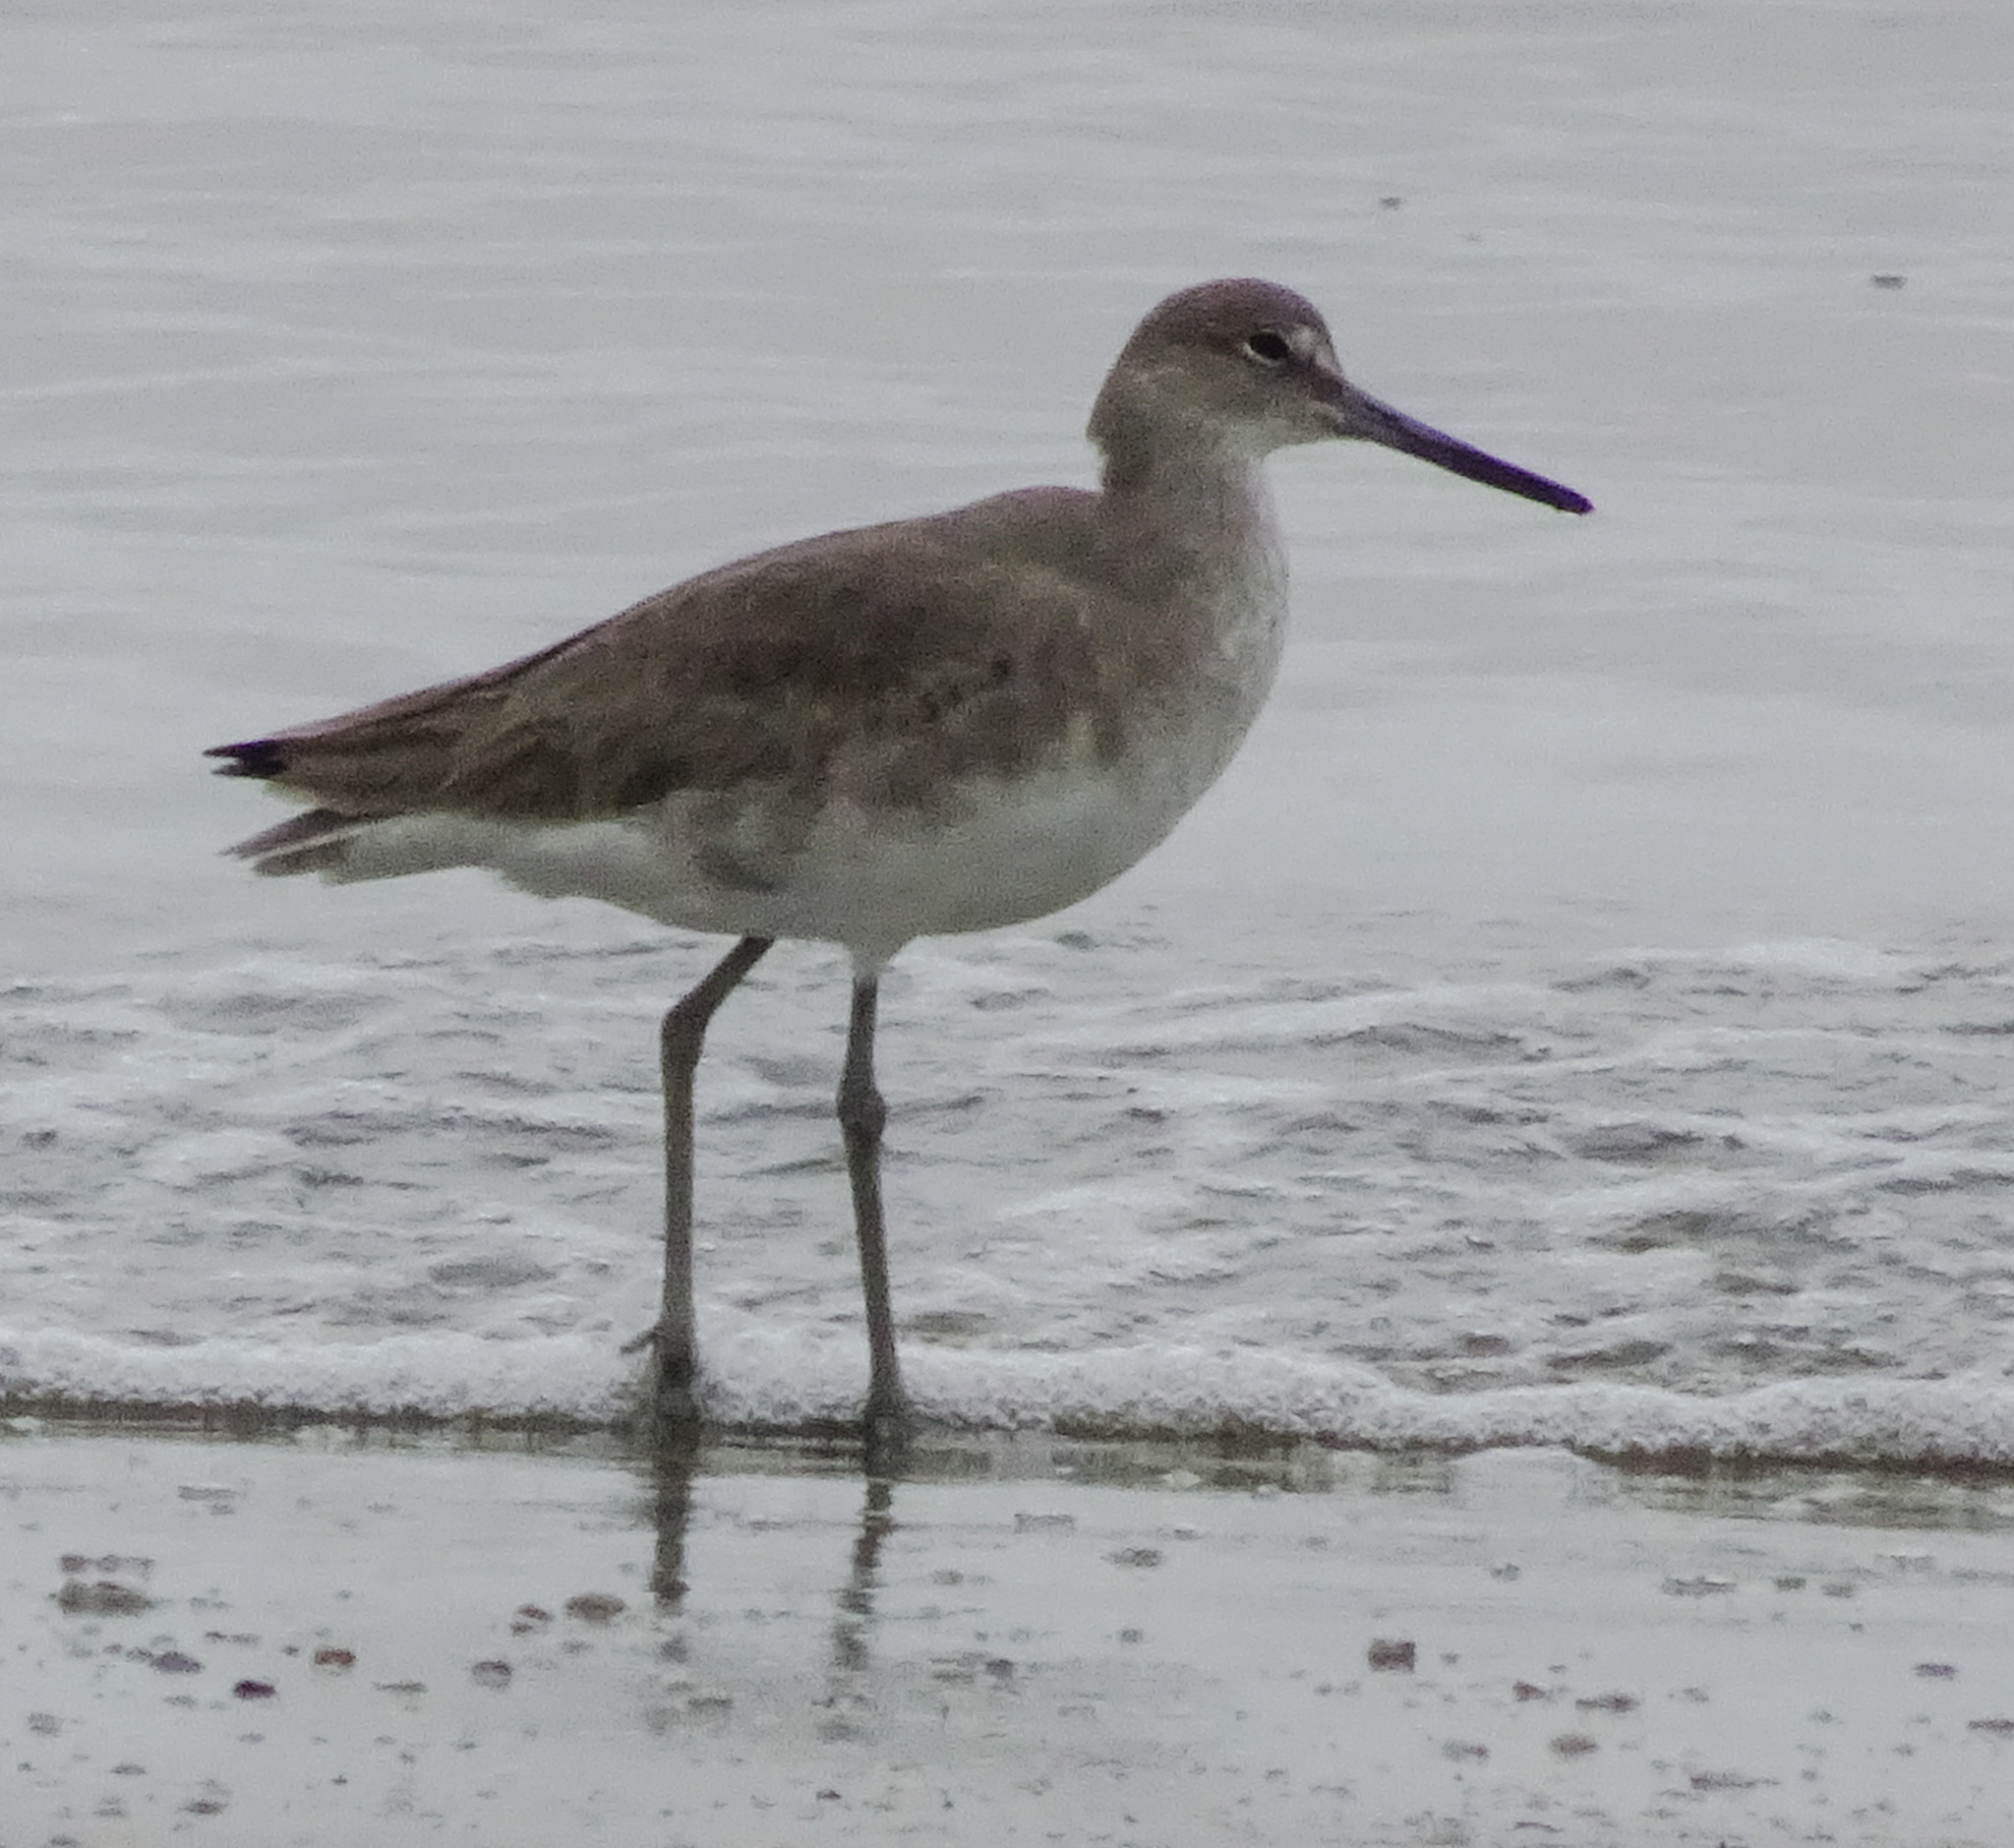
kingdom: Animalia
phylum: Chordata
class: Aves
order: Charadriiformes
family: Scolopacidae
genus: Tringa
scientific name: Tringa semipalmata
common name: Willet
